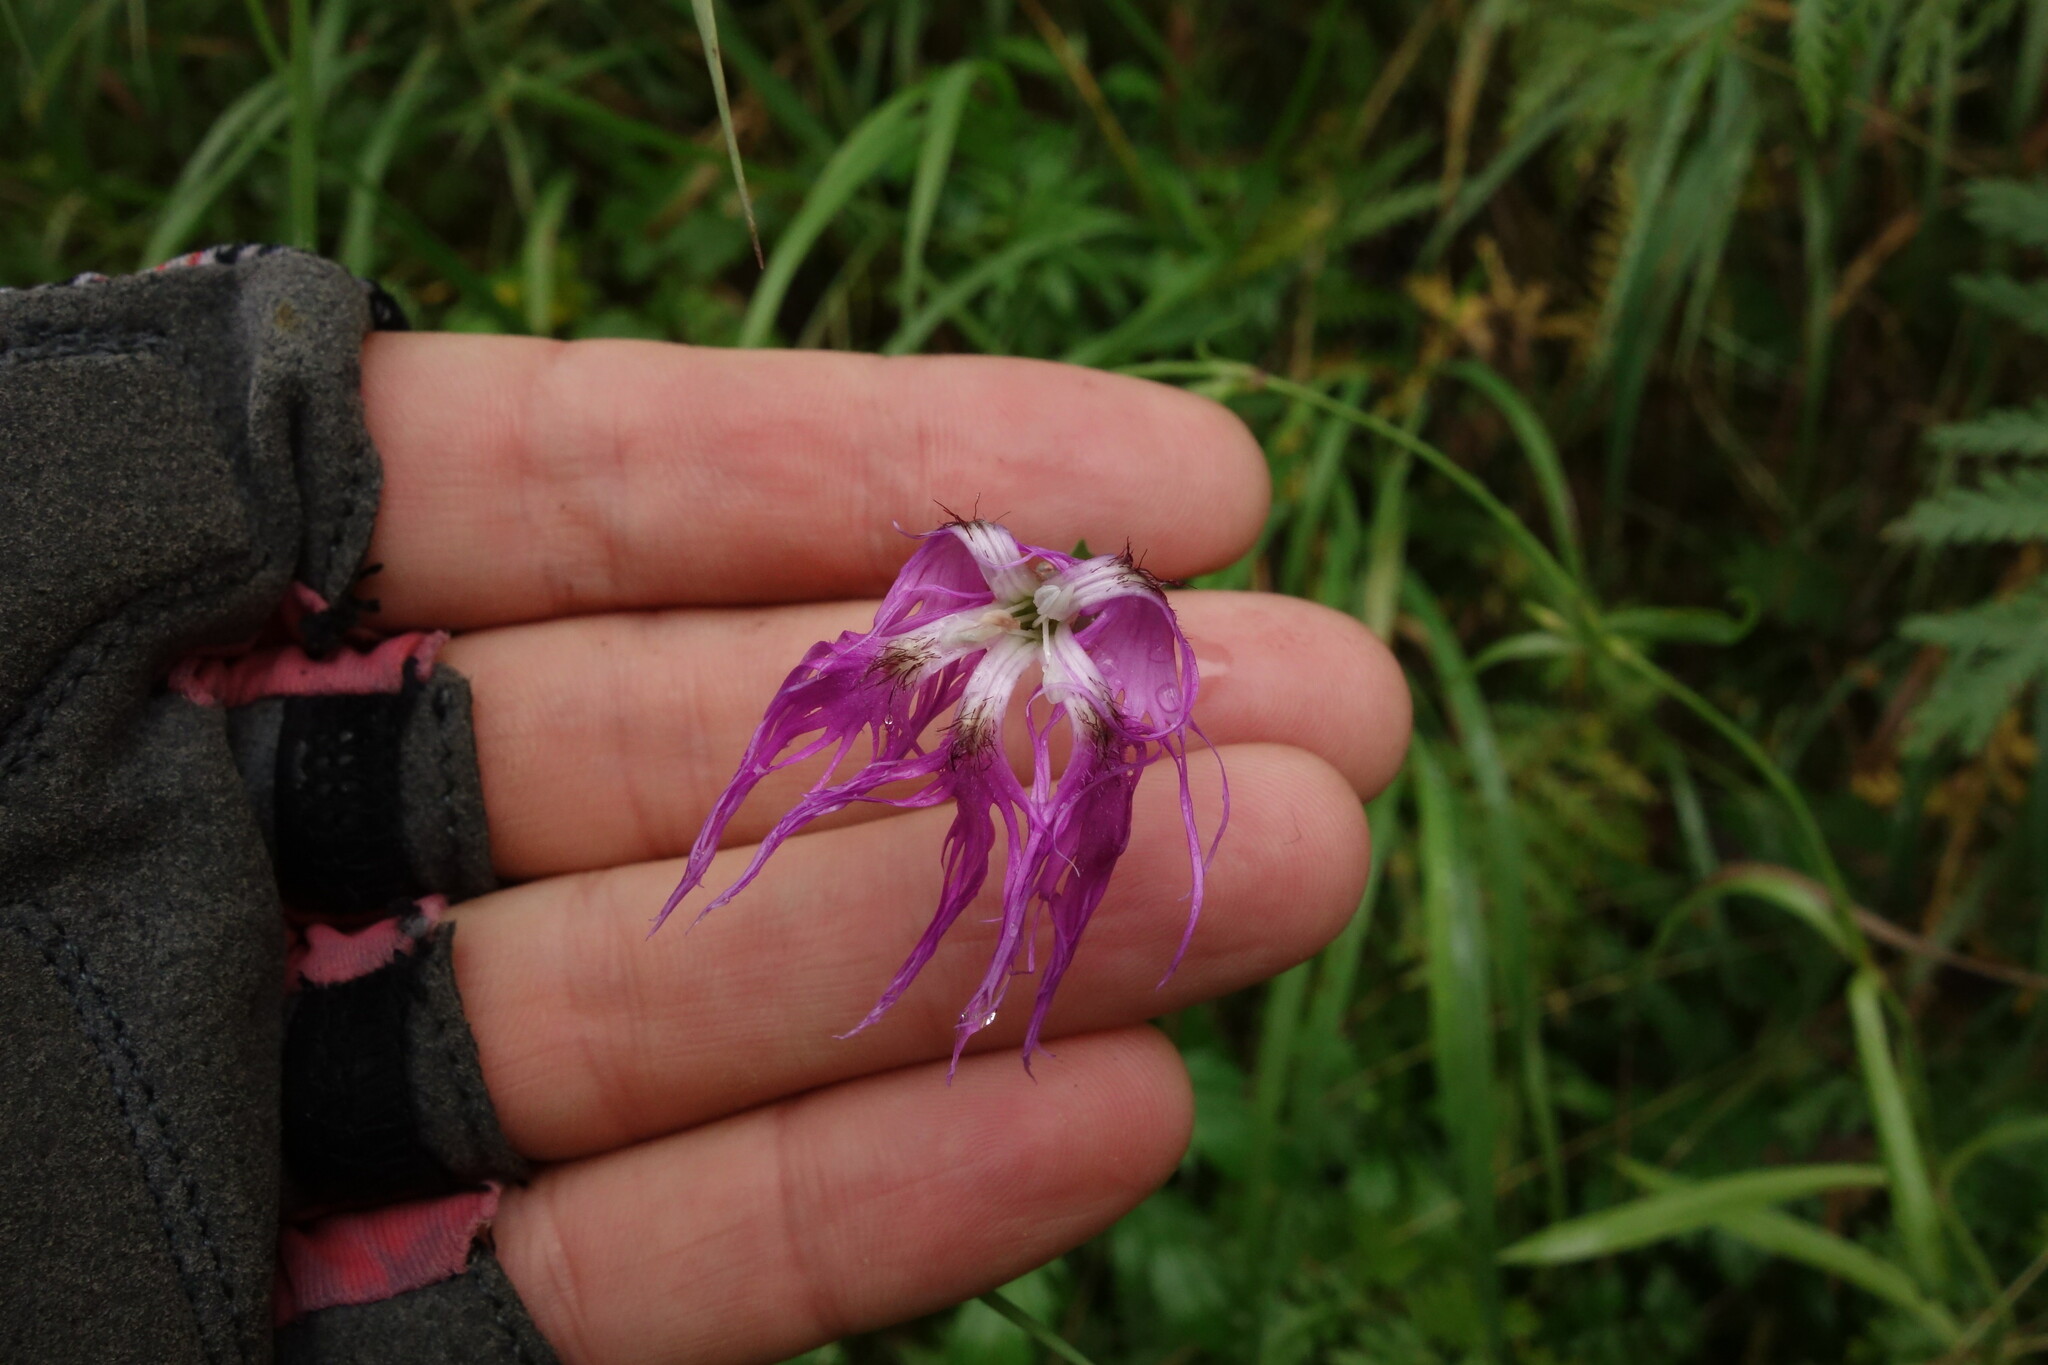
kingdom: Plantae
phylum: Tracheophyta
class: Magnoliopsida
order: Caryophyllales
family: Caryophyllaceae
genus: Dianthus
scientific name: Dianthus superbus
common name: Fringed pink
